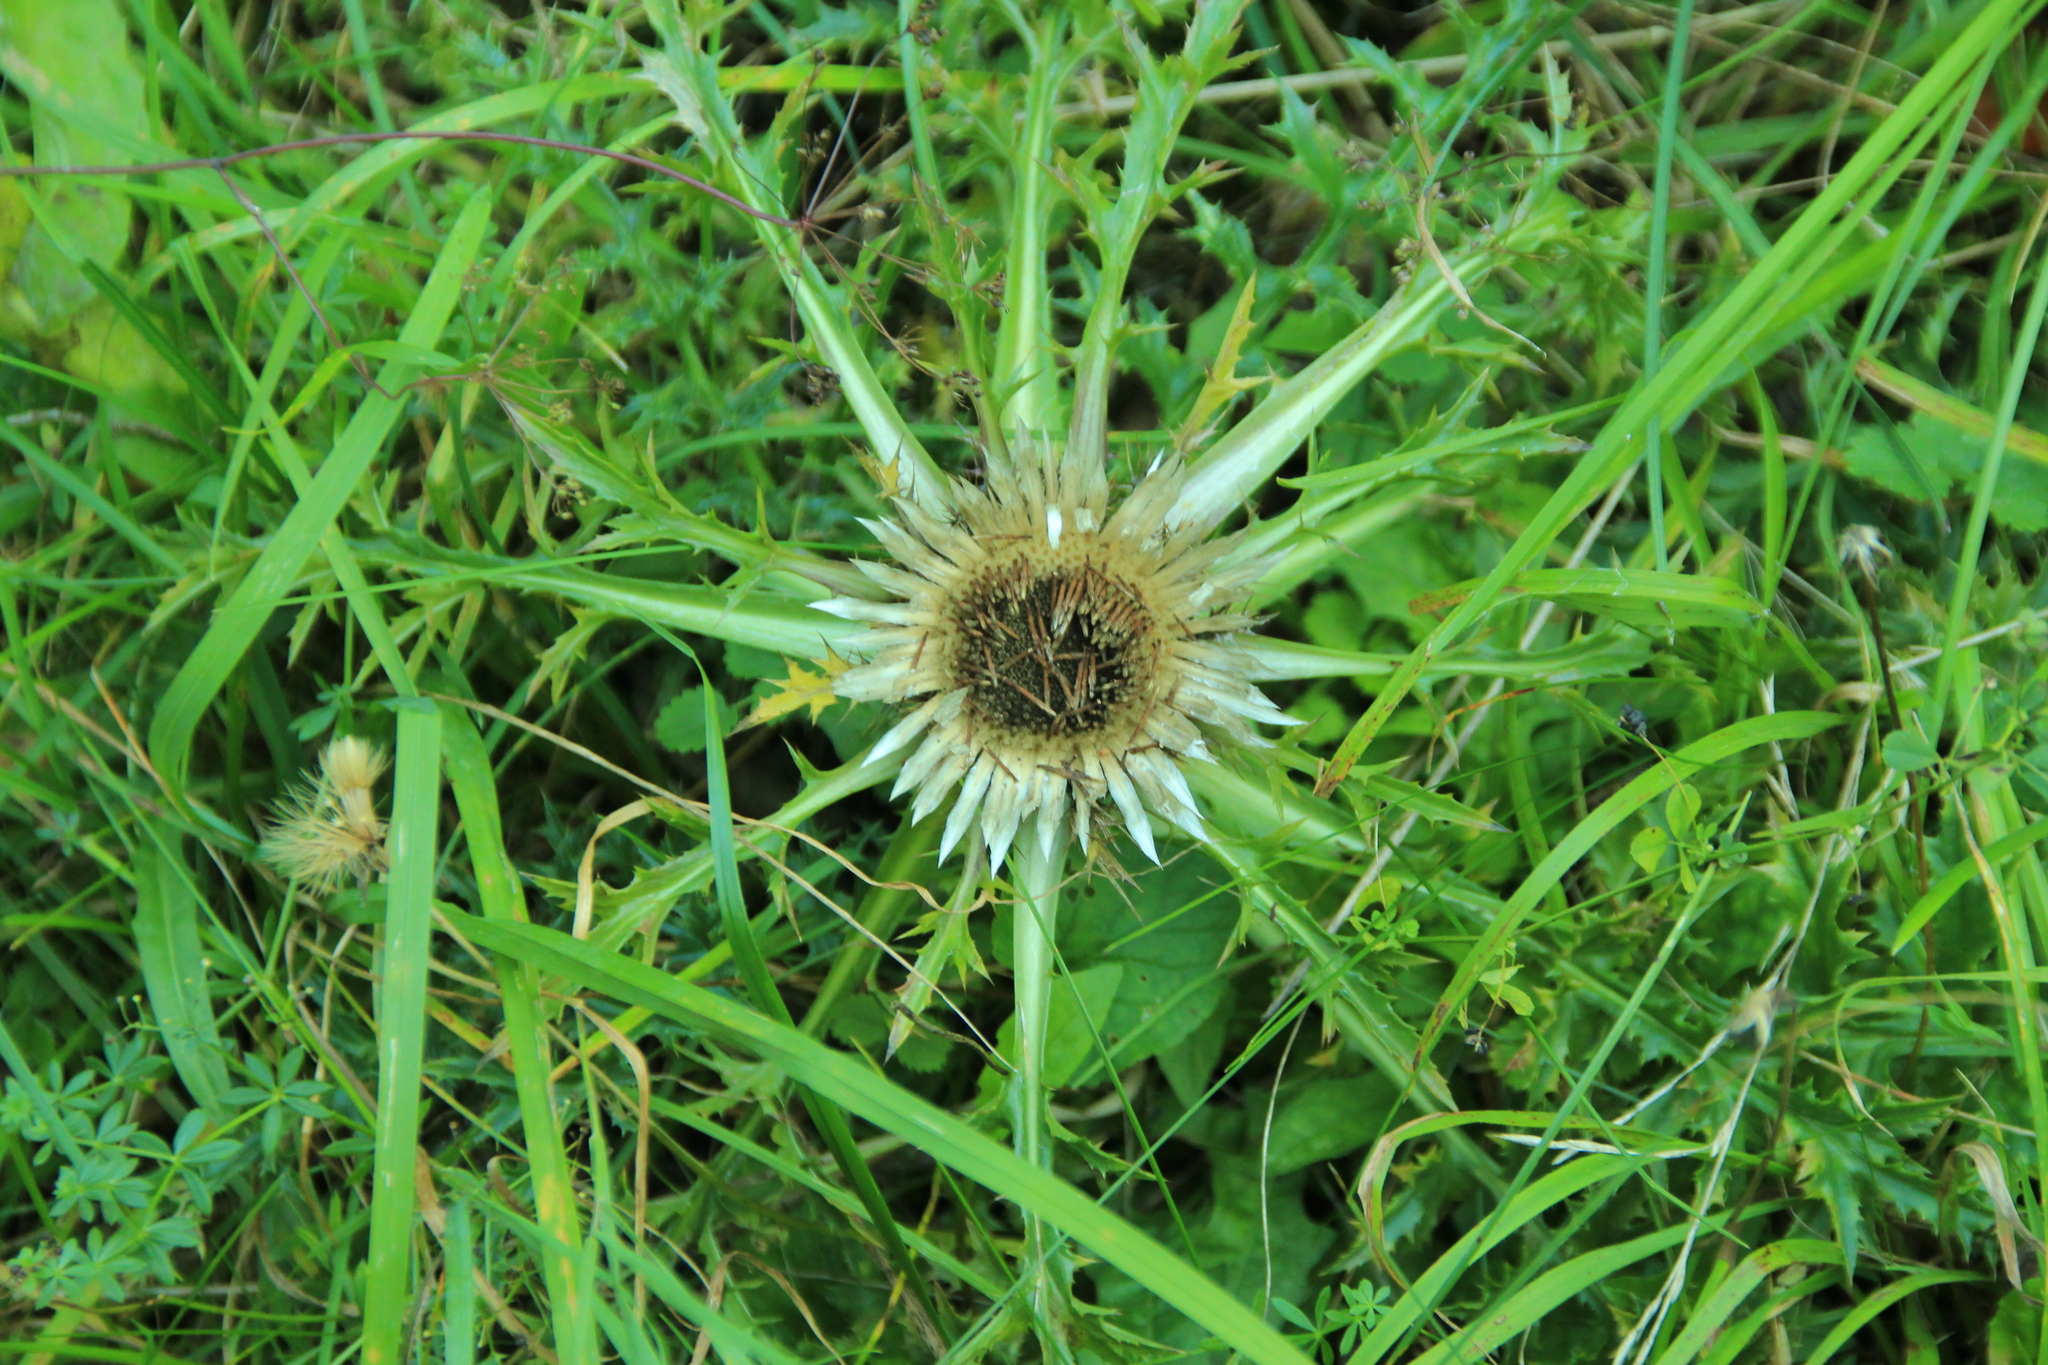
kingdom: Plantae
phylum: Tracheophyta
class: Magnoliopsida
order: Asterales
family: Asteraceae
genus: Carlina
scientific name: Carlina acaulis
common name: Stemless carline thistle
